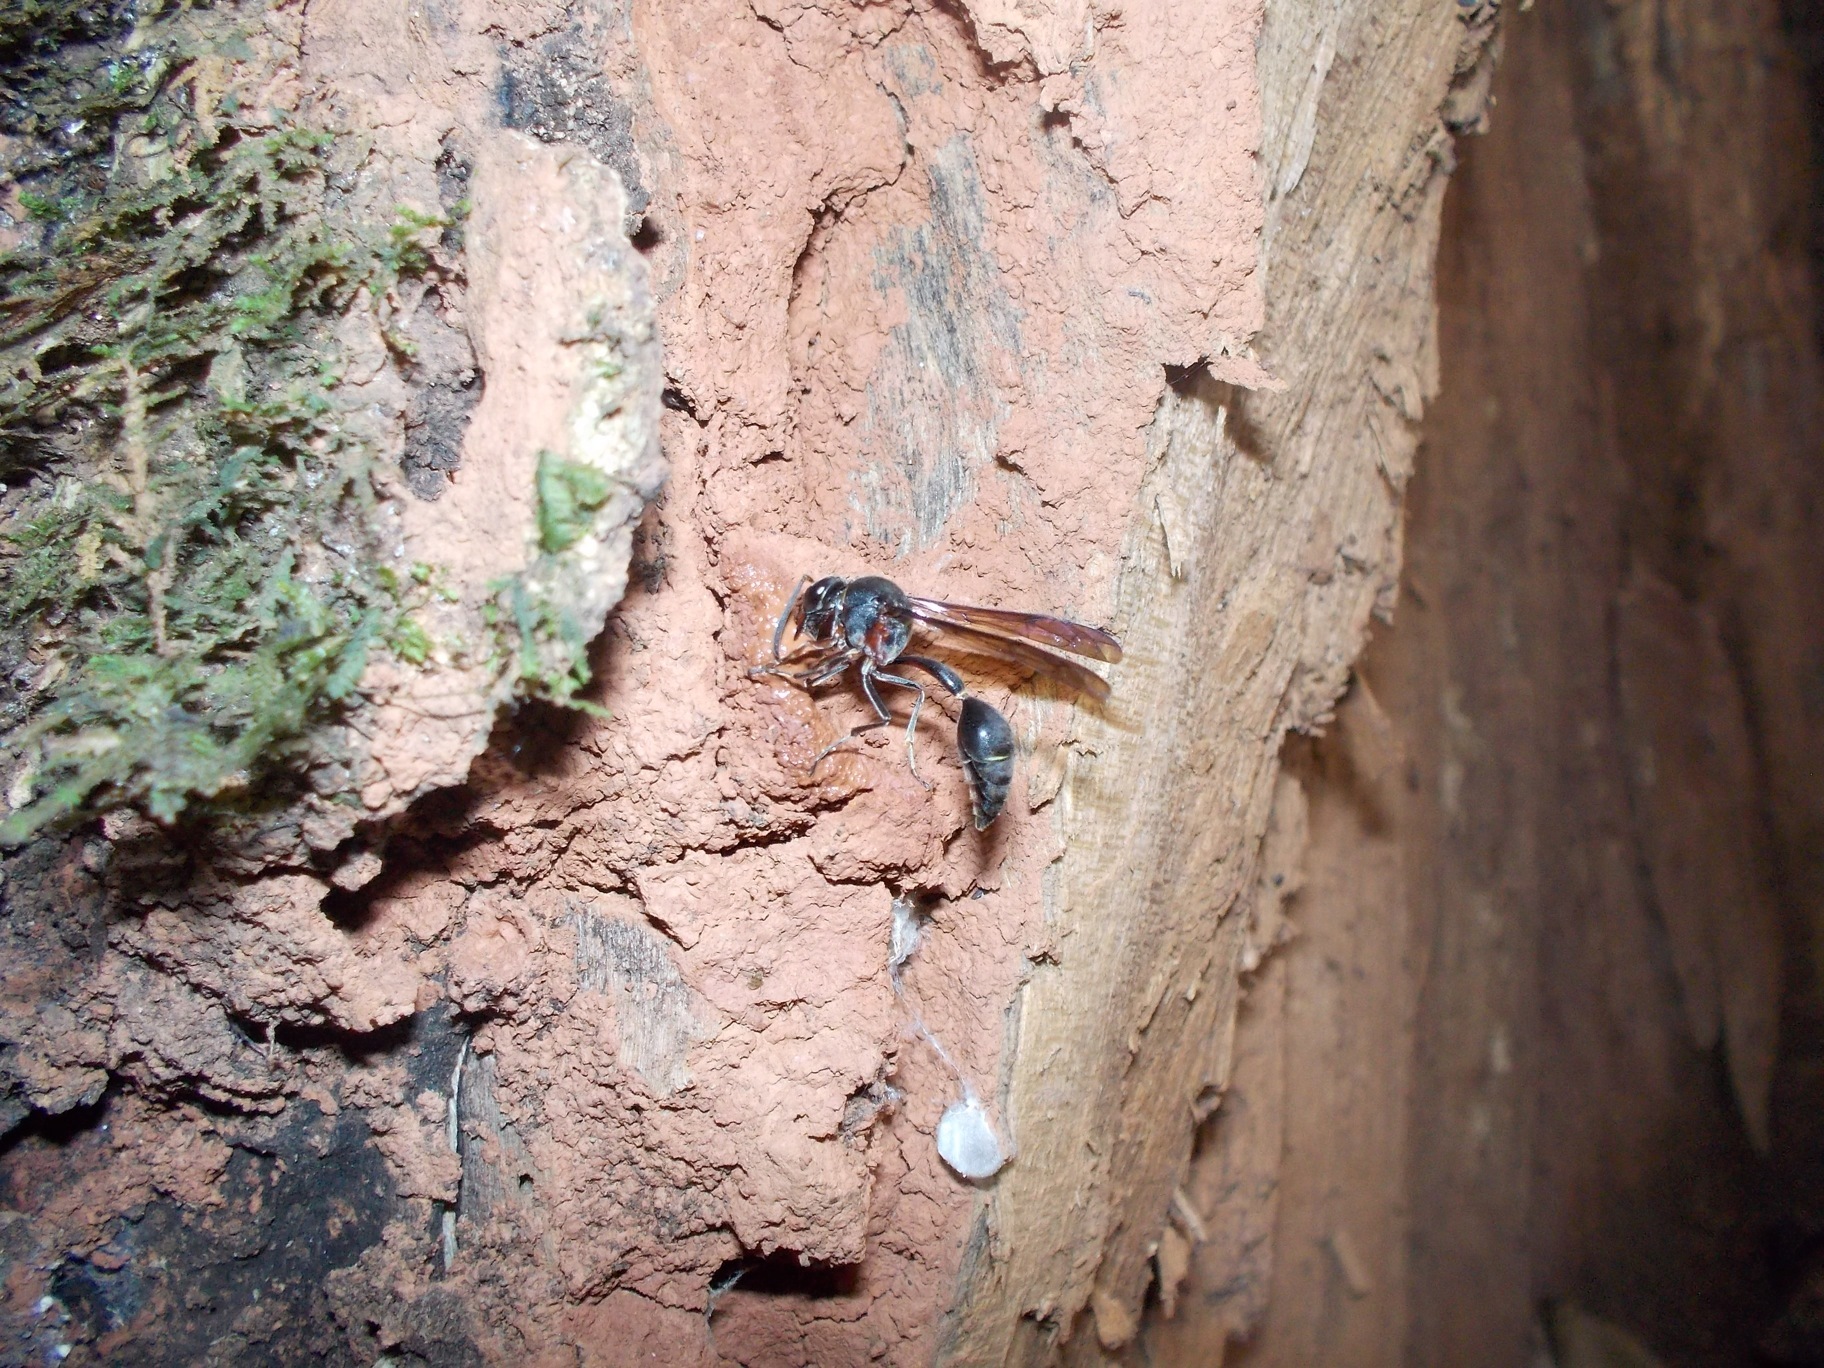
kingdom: Animalia
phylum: Arthropoda
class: Insecta
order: Hymenoptera
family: Eumenidae
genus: Afreumenes
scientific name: Afreumenes
